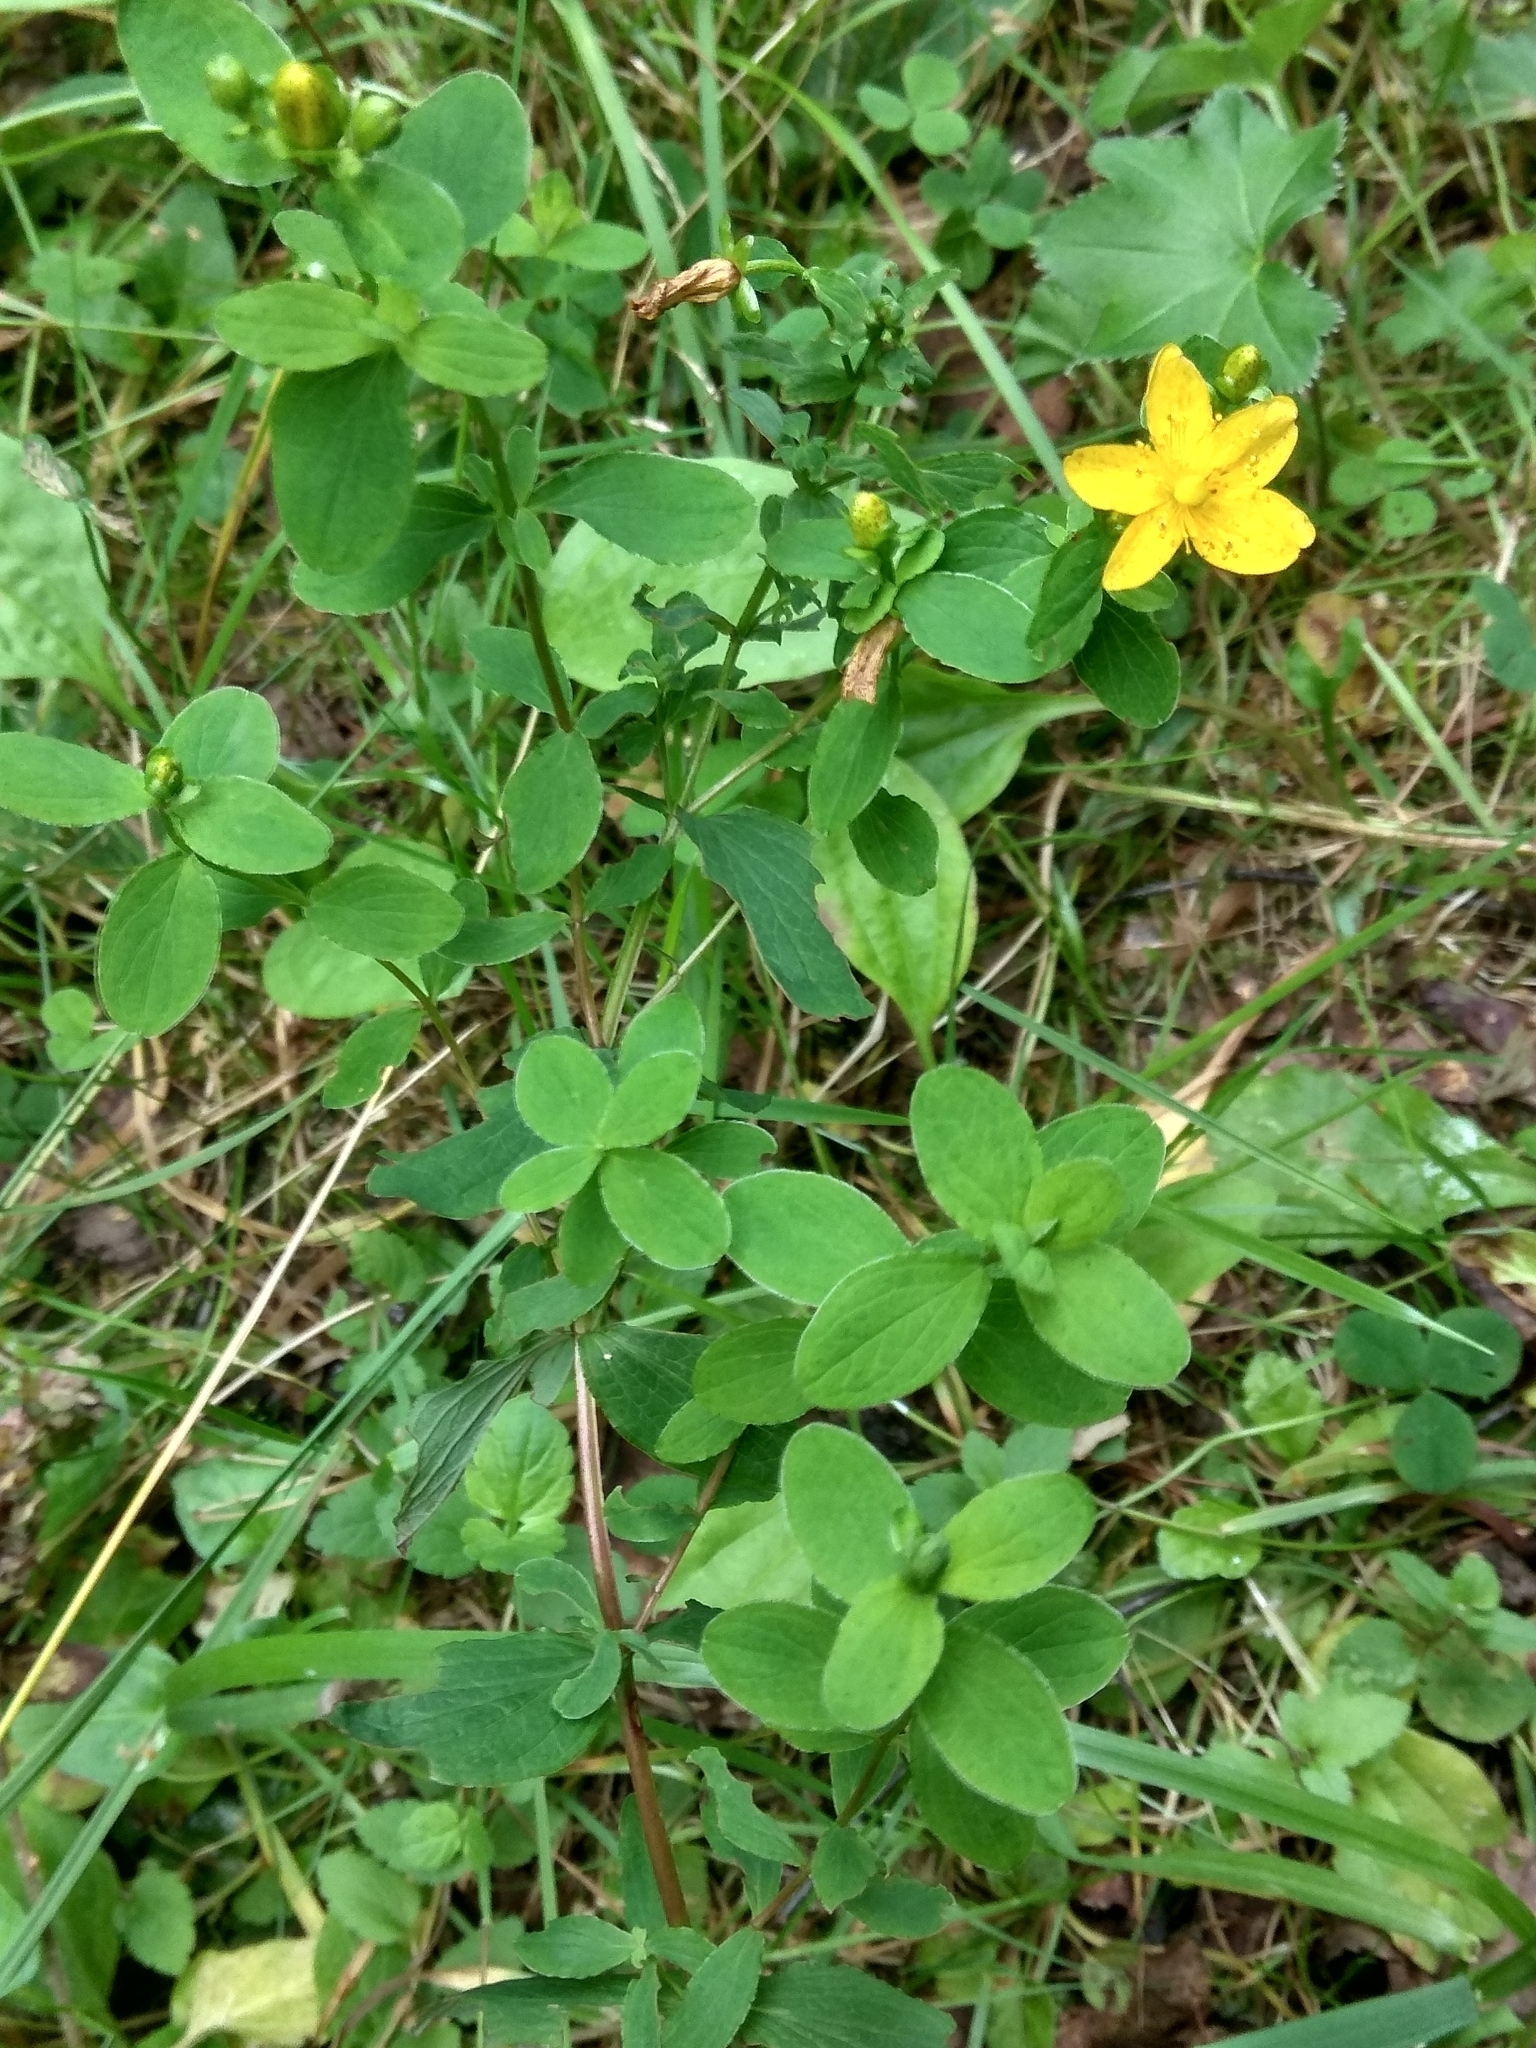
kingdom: Plantae
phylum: Tracheophyta
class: Magnoliopsida
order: Malpighiales
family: Hypericaceae
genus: Hypericum
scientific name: Hypericum maculatum
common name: Imperforate st. john's-wort
